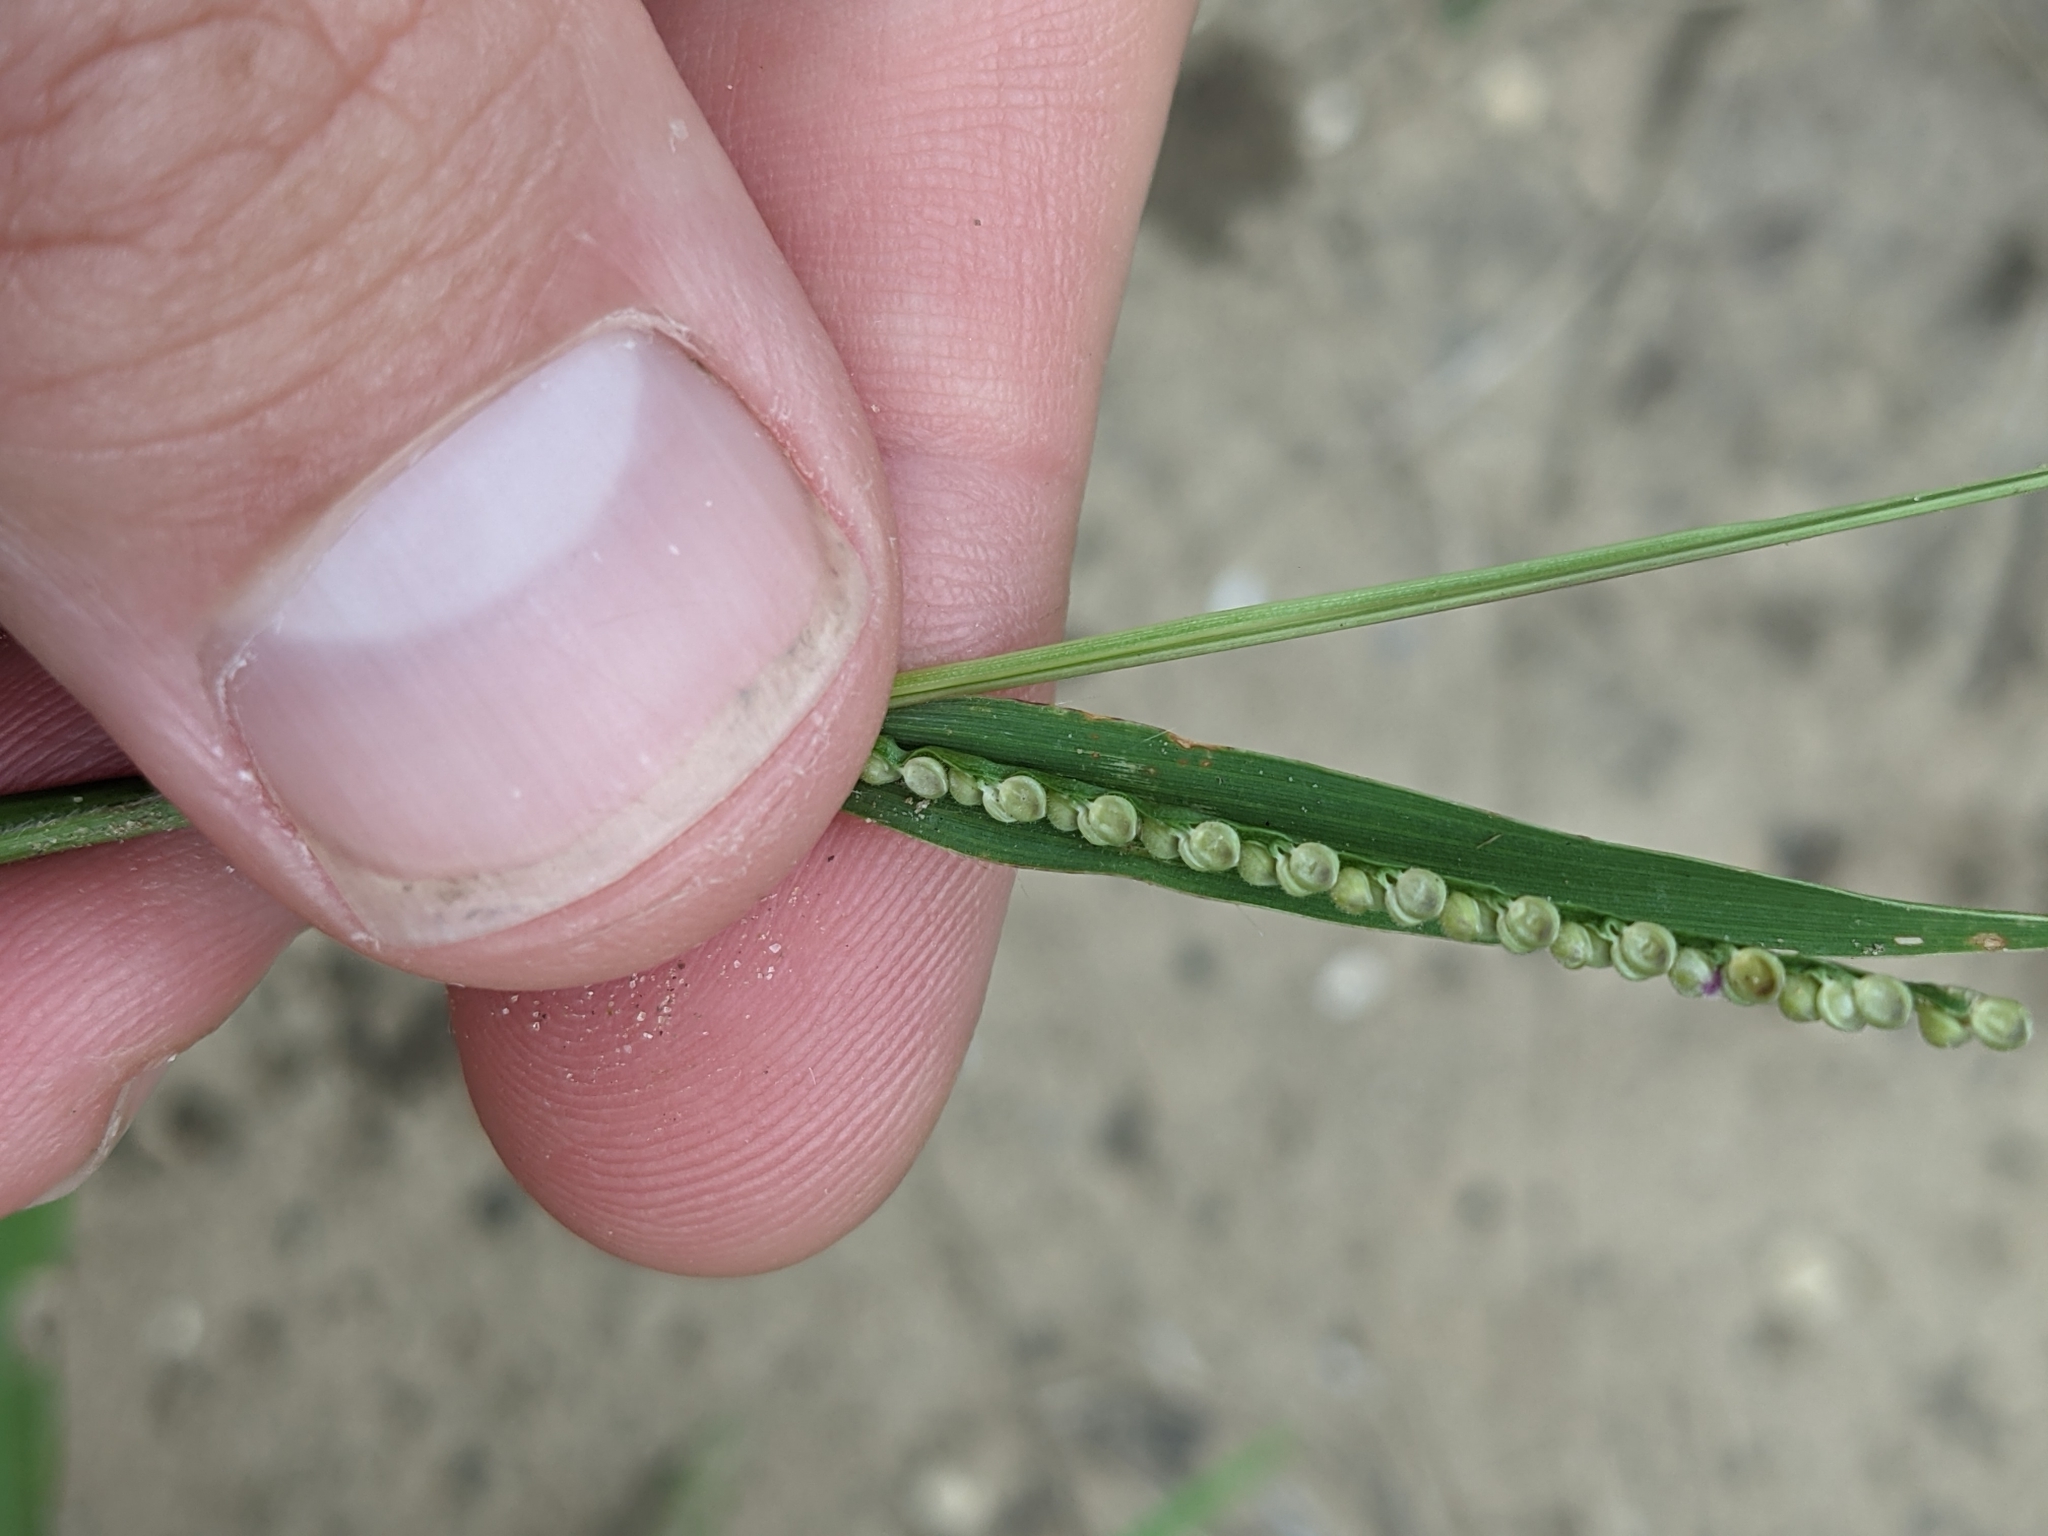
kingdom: Plantae
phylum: Tracheophyta
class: Liliopsida
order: Poales
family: Poaceae
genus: Paspalum
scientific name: Paspalum setaceum
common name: Slender paspalum
